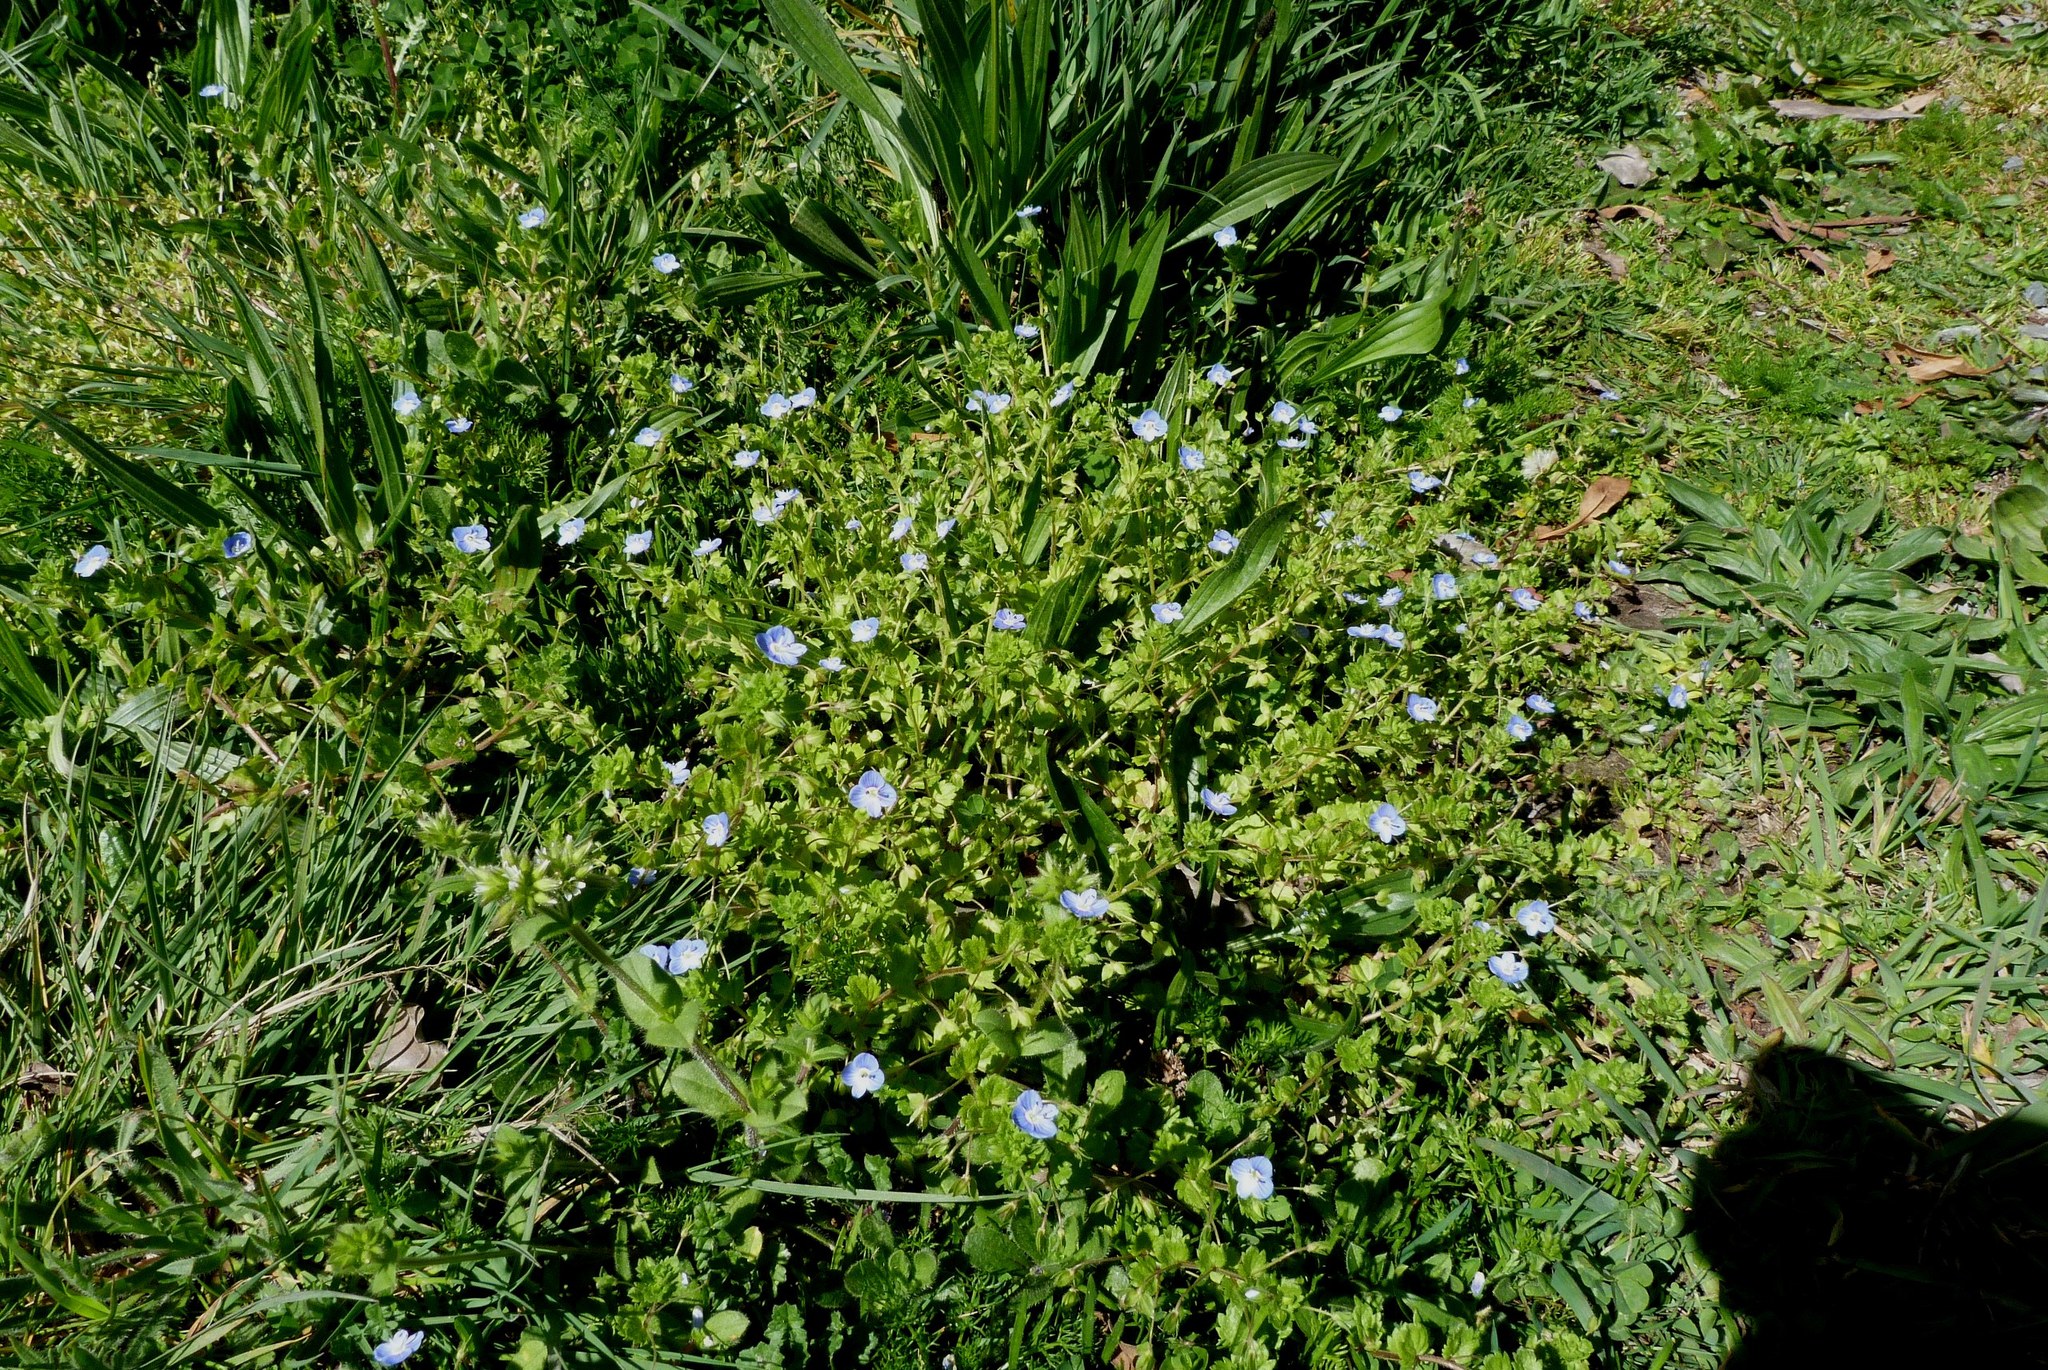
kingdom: Plantae
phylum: Tracheophyta
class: Magnoliopsida
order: Lamiales
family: Plantaginaceae
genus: Veronica
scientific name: Veronica persica
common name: Common field-speedwell
